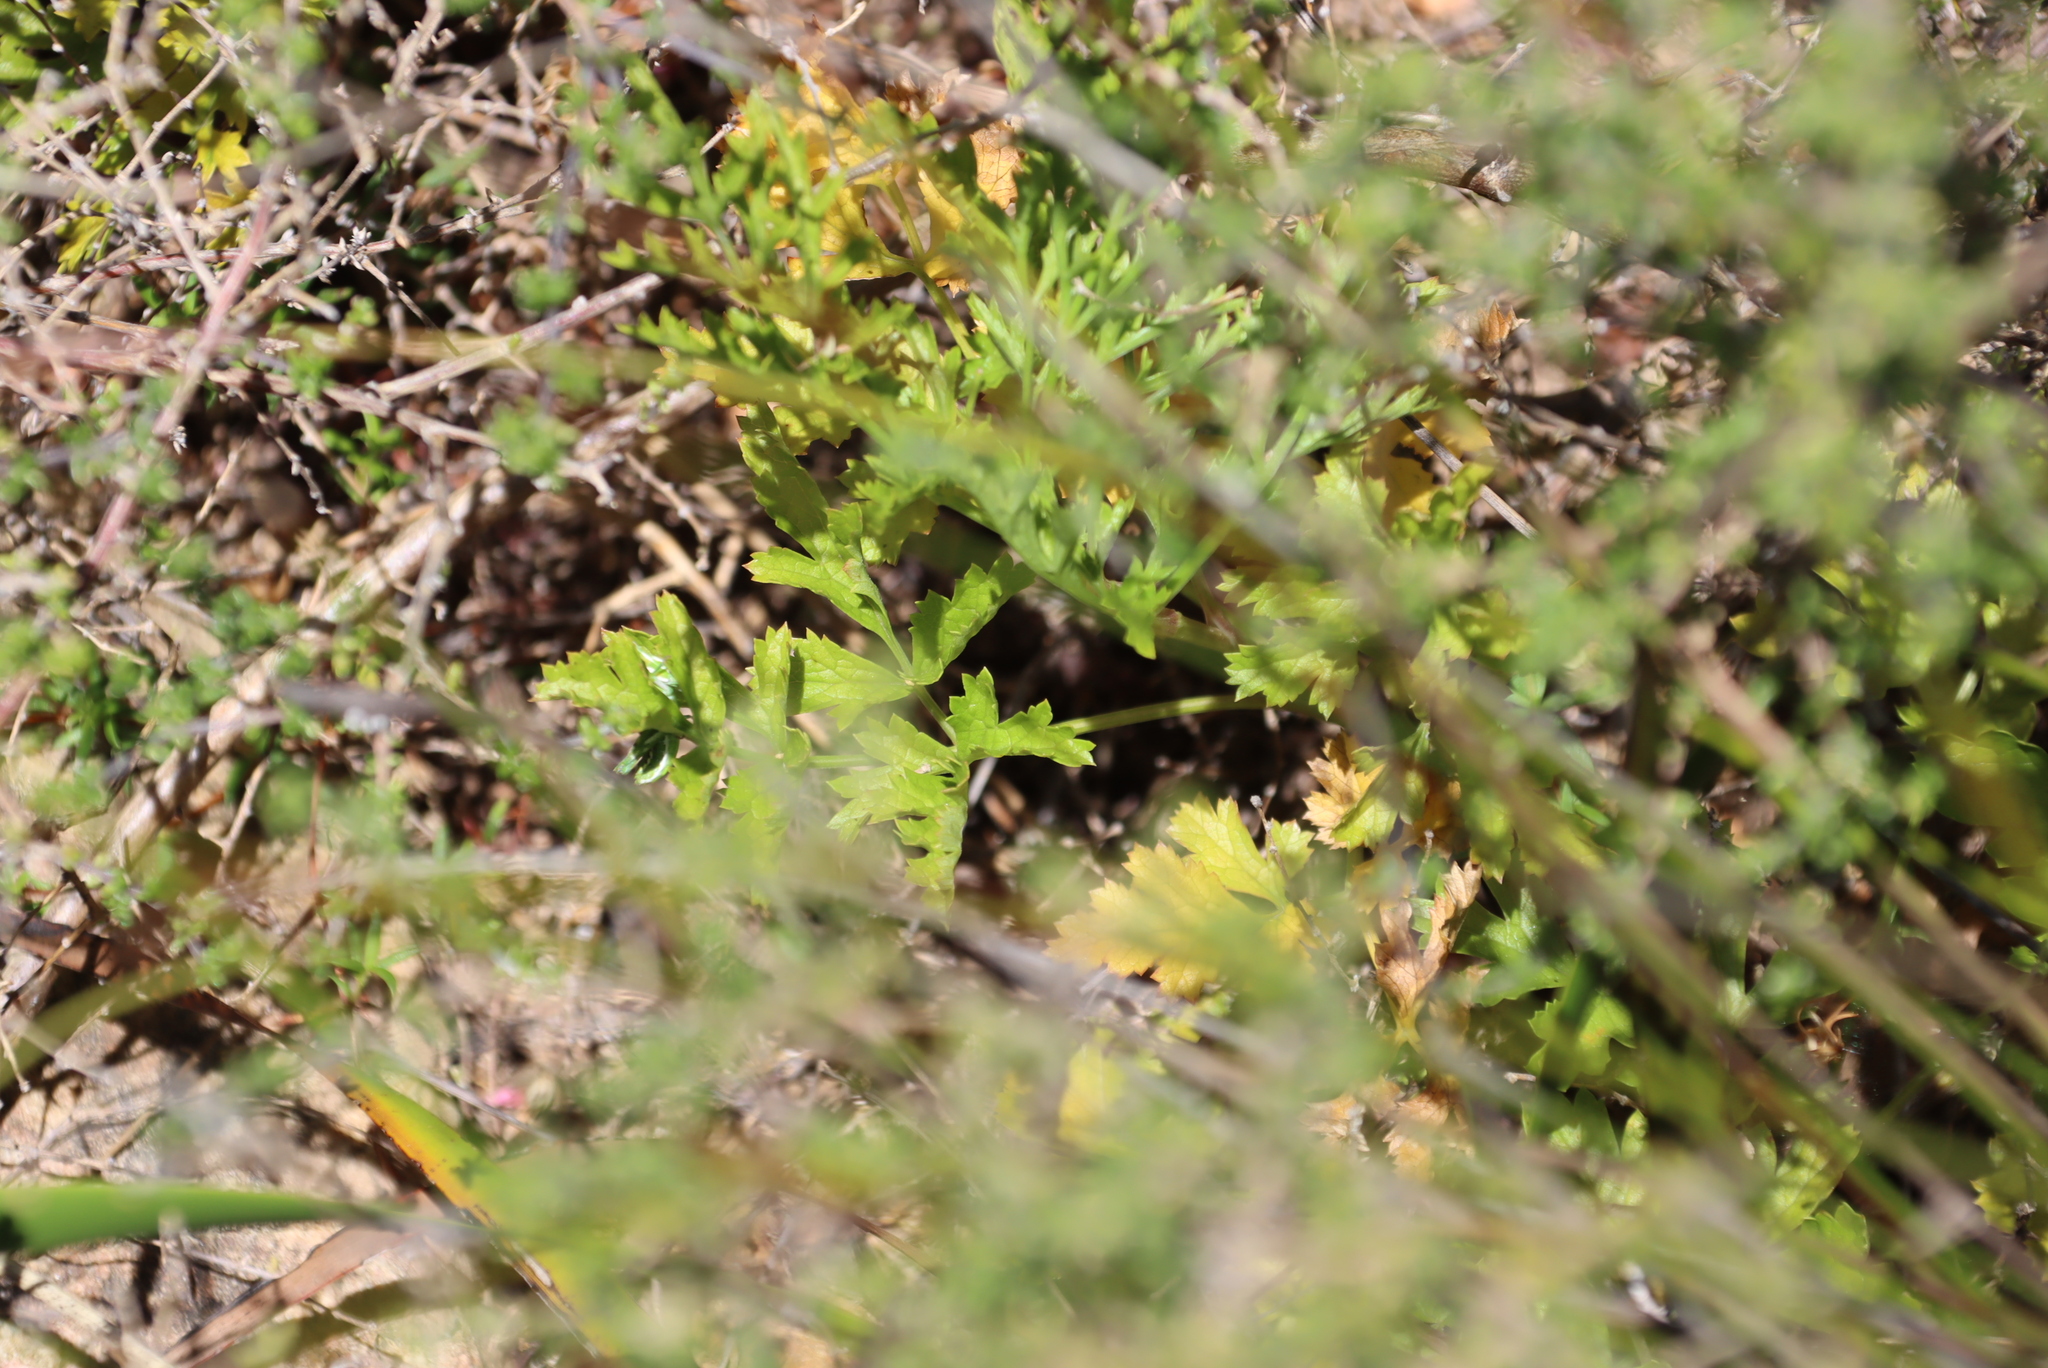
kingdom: Plantae
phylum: Tracheophyta
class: Magnoliopsida
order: Apiales
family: Apiaceae
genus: Glia
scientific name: Glia prolifera
